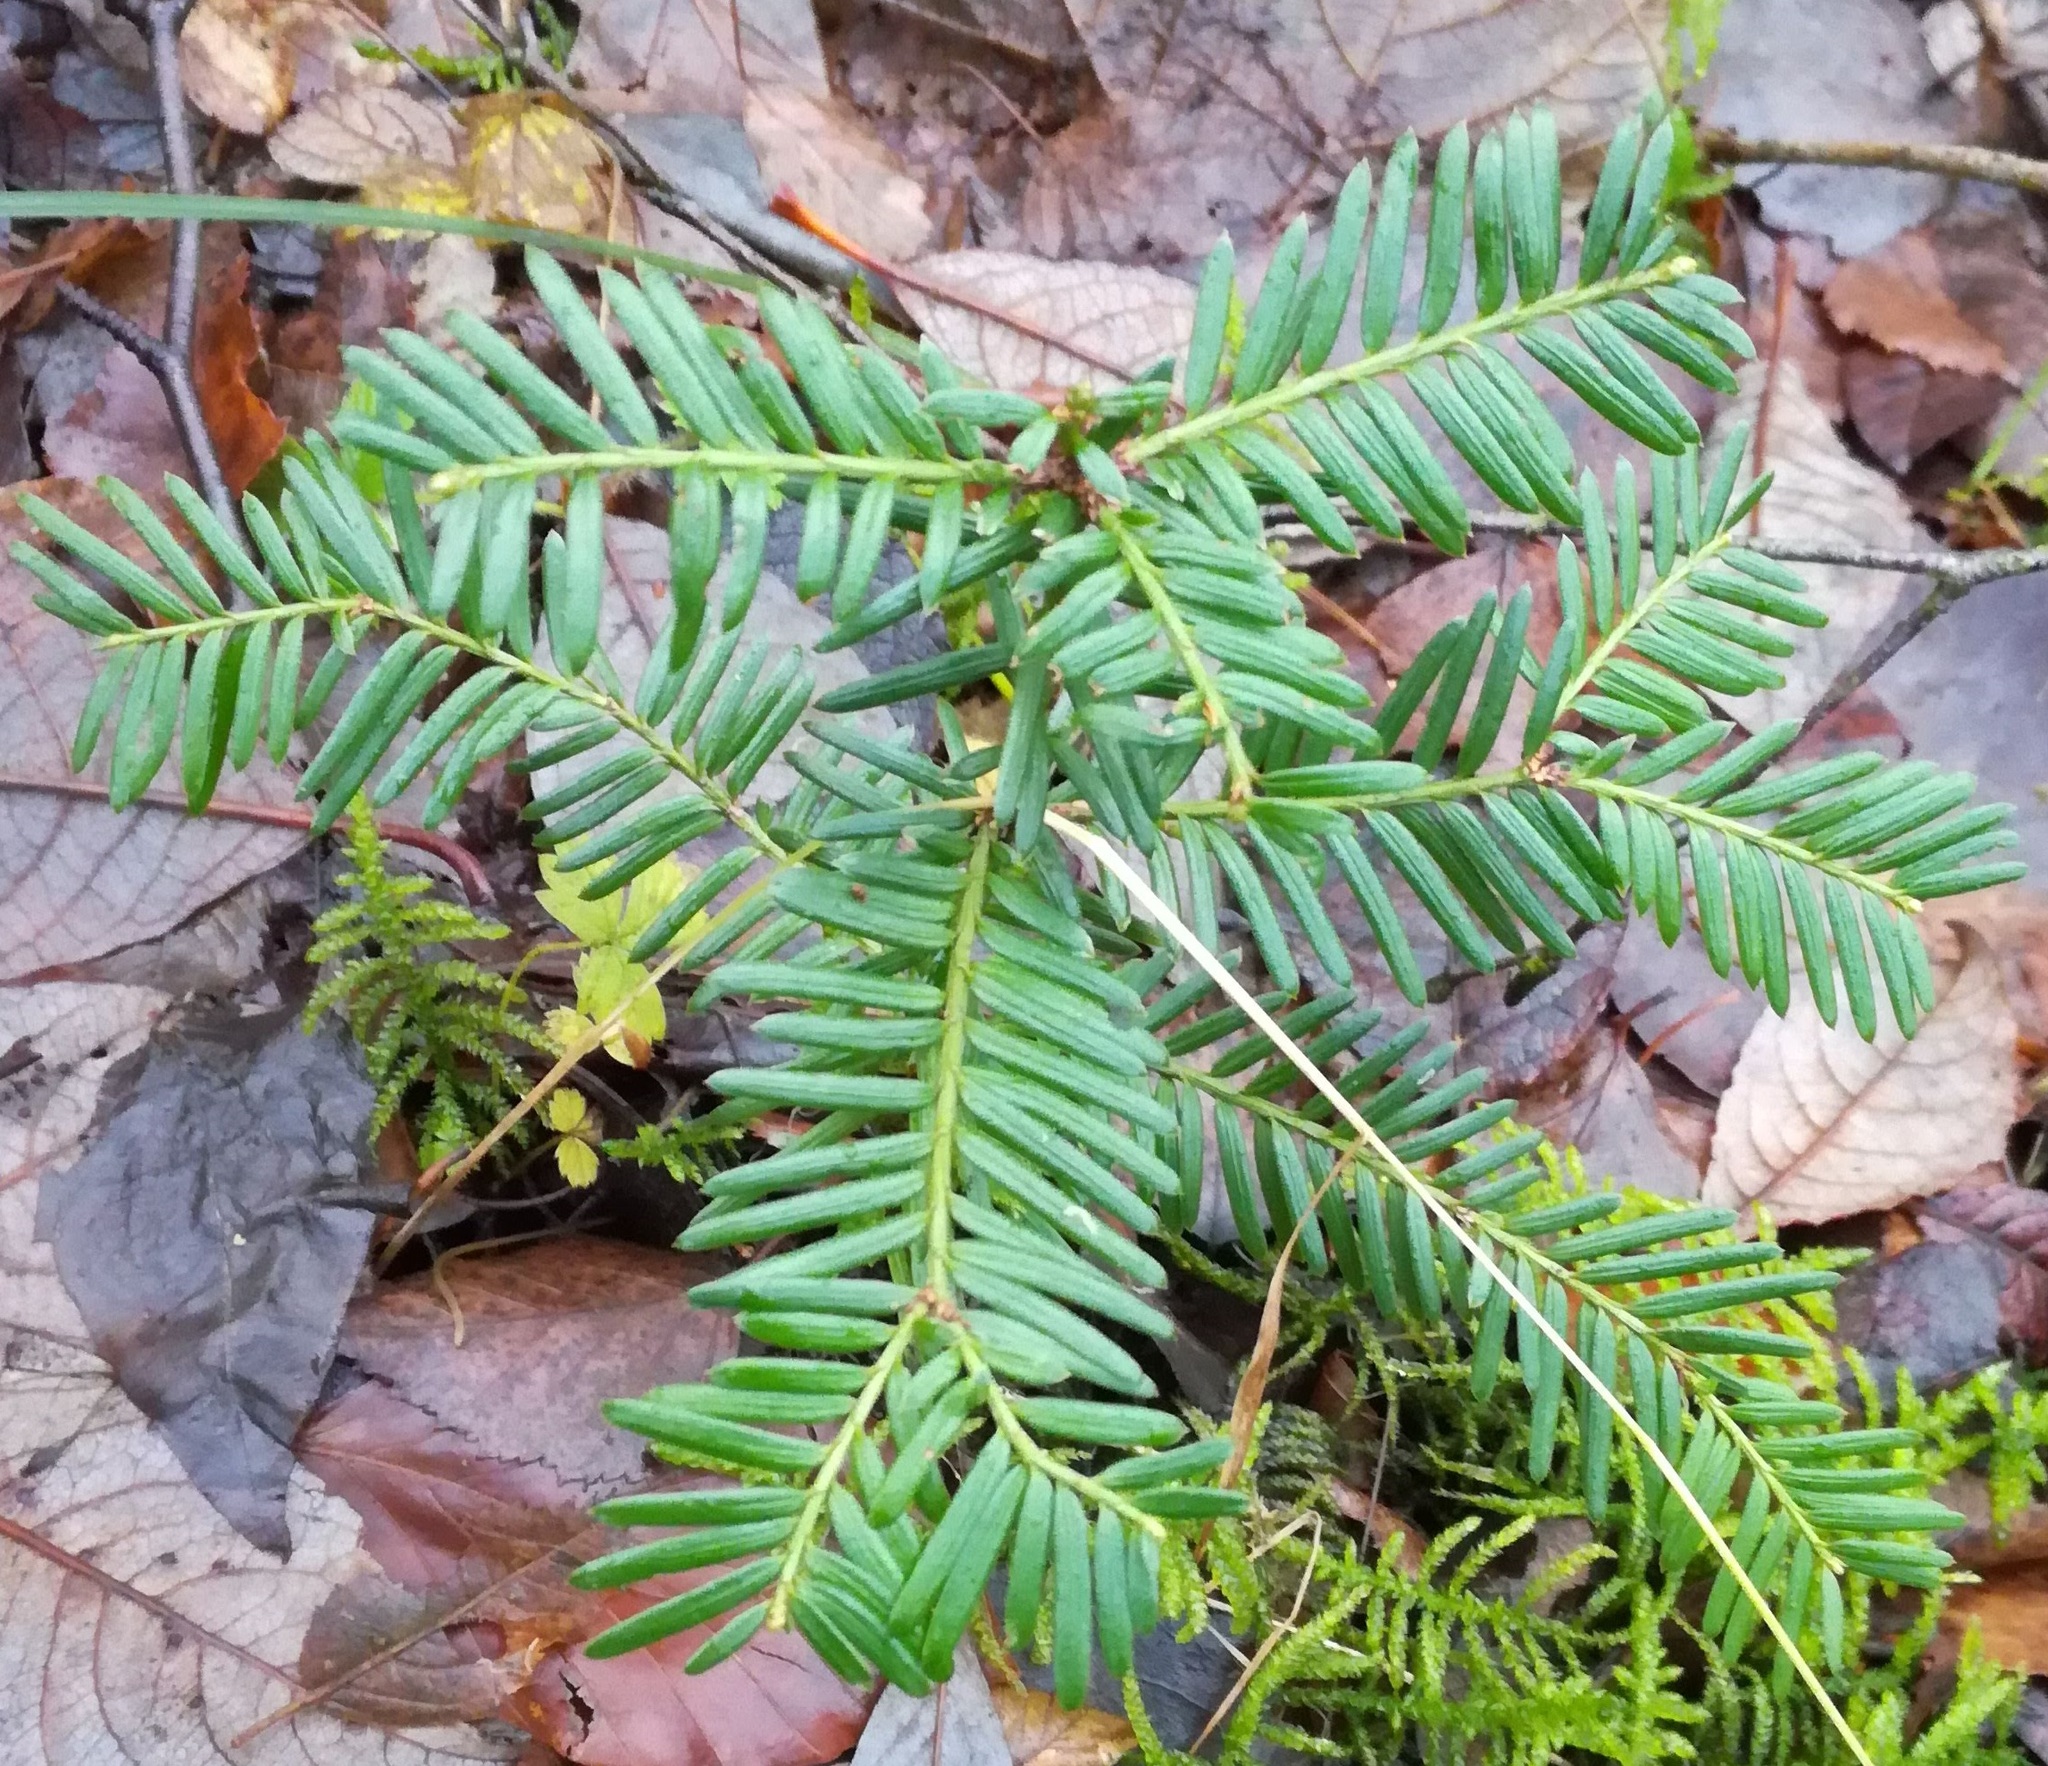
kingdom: Plantae
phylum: Tracheophyta
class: Pinopsida
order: Pinales
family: Taxaceae
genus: Taxus
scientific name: Taxus baccata
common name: Yew
